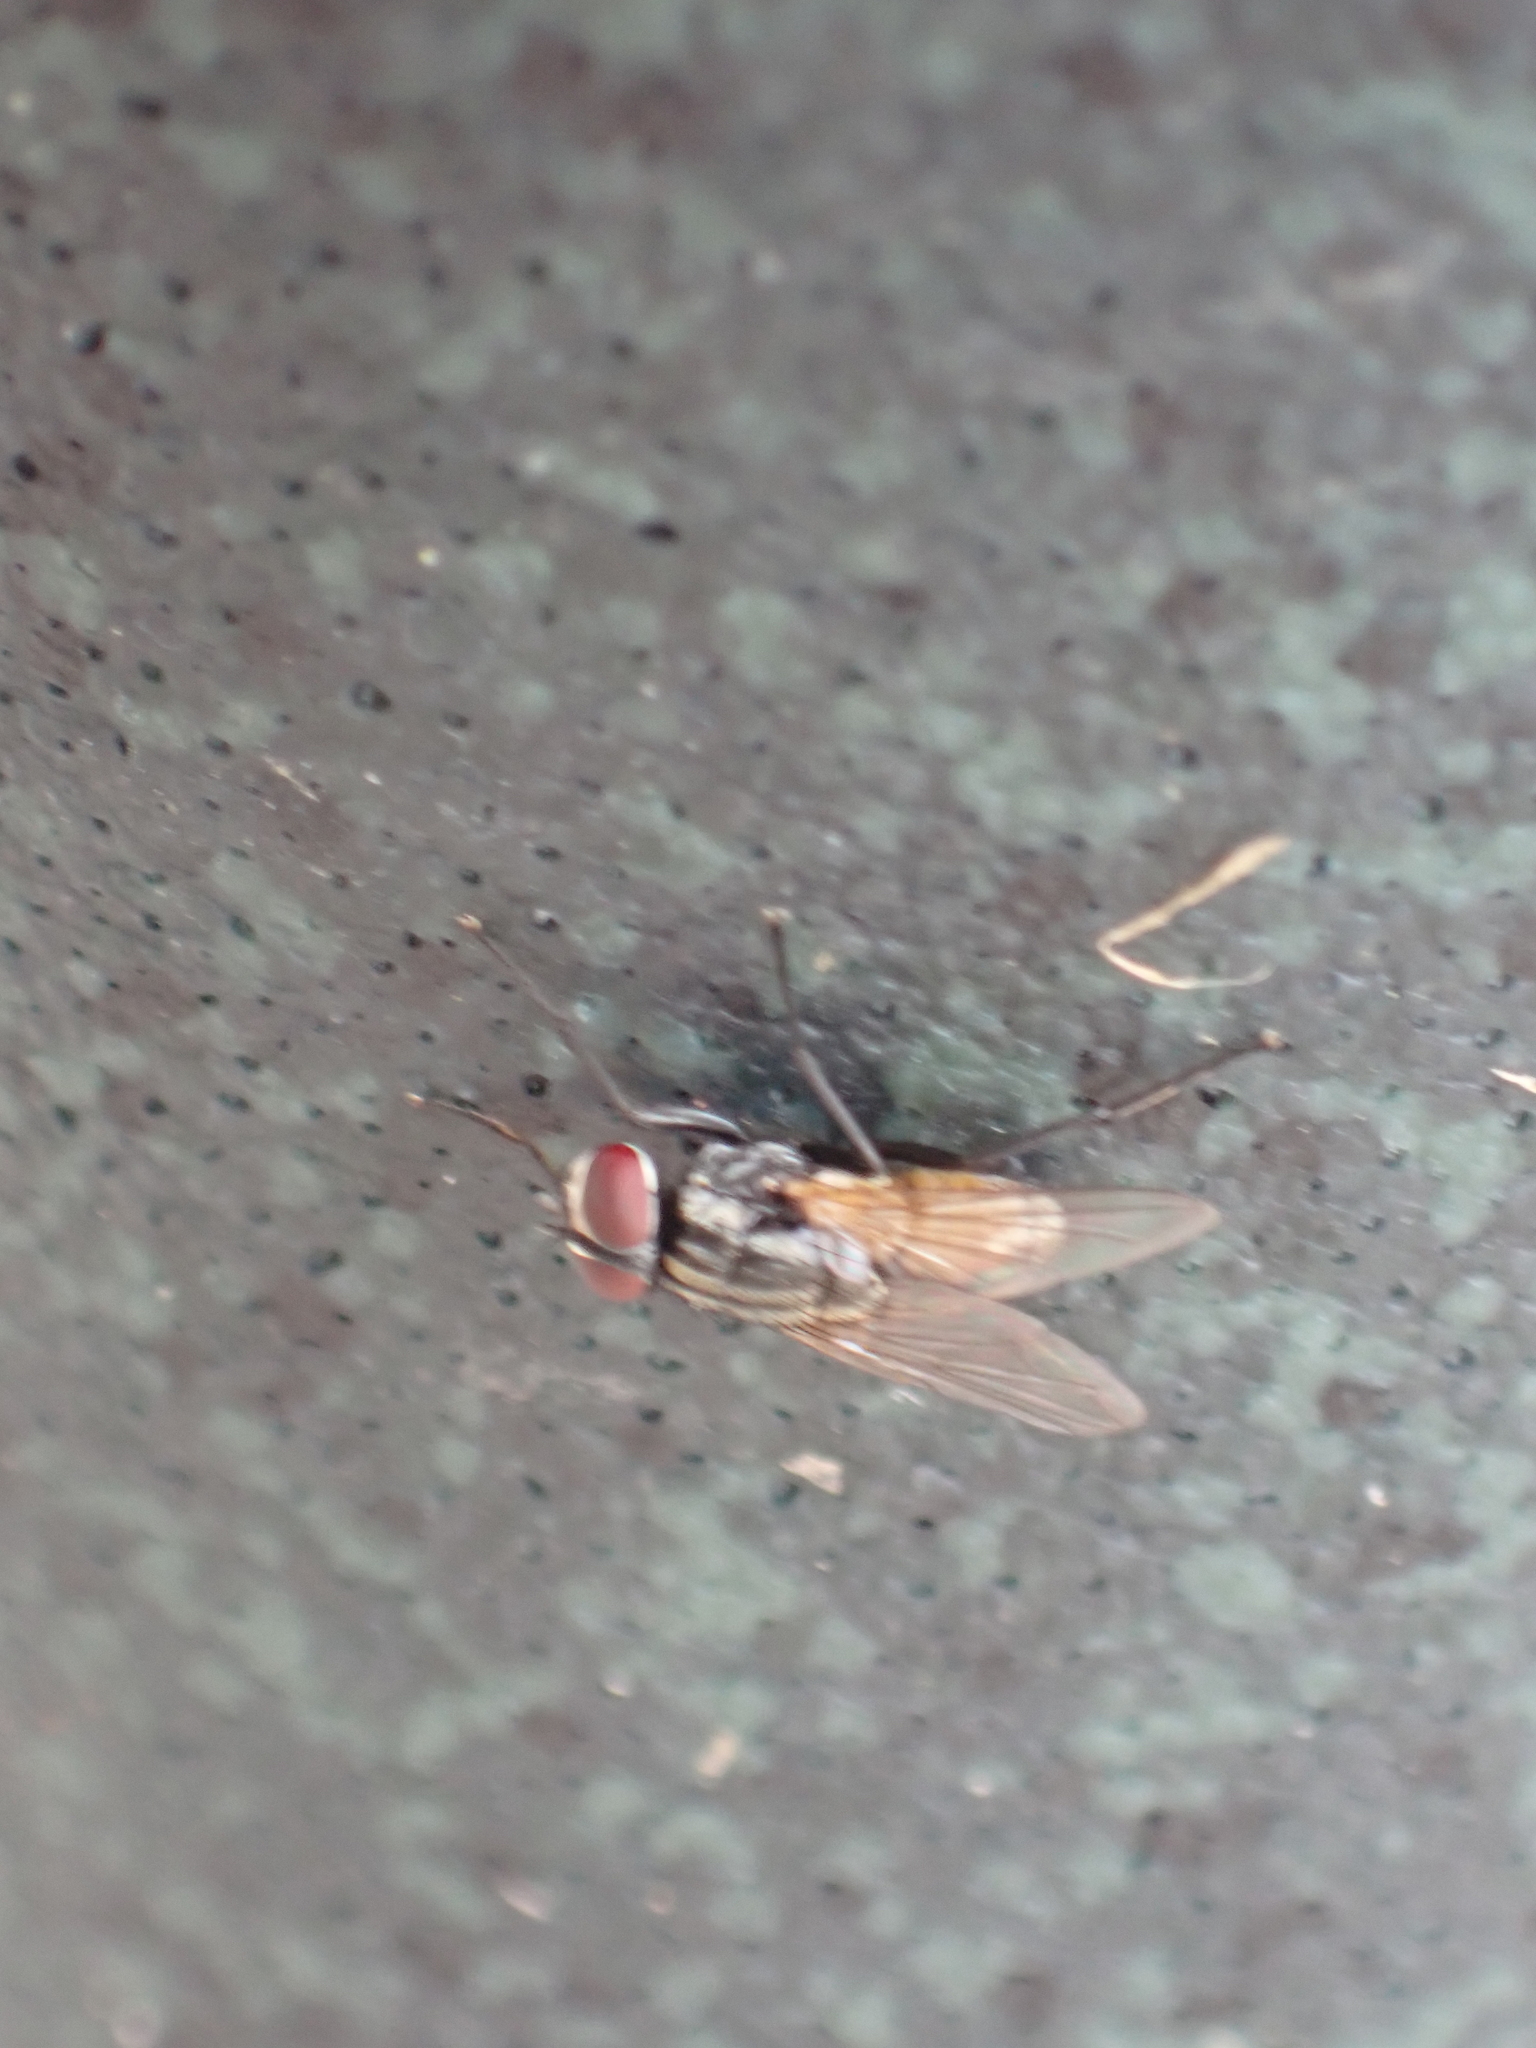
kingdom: Animalia
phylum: Arthropoda
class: Insecta
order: Diptera
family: Muscidae
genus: Musca
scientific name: Musca domestica
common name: House fly
